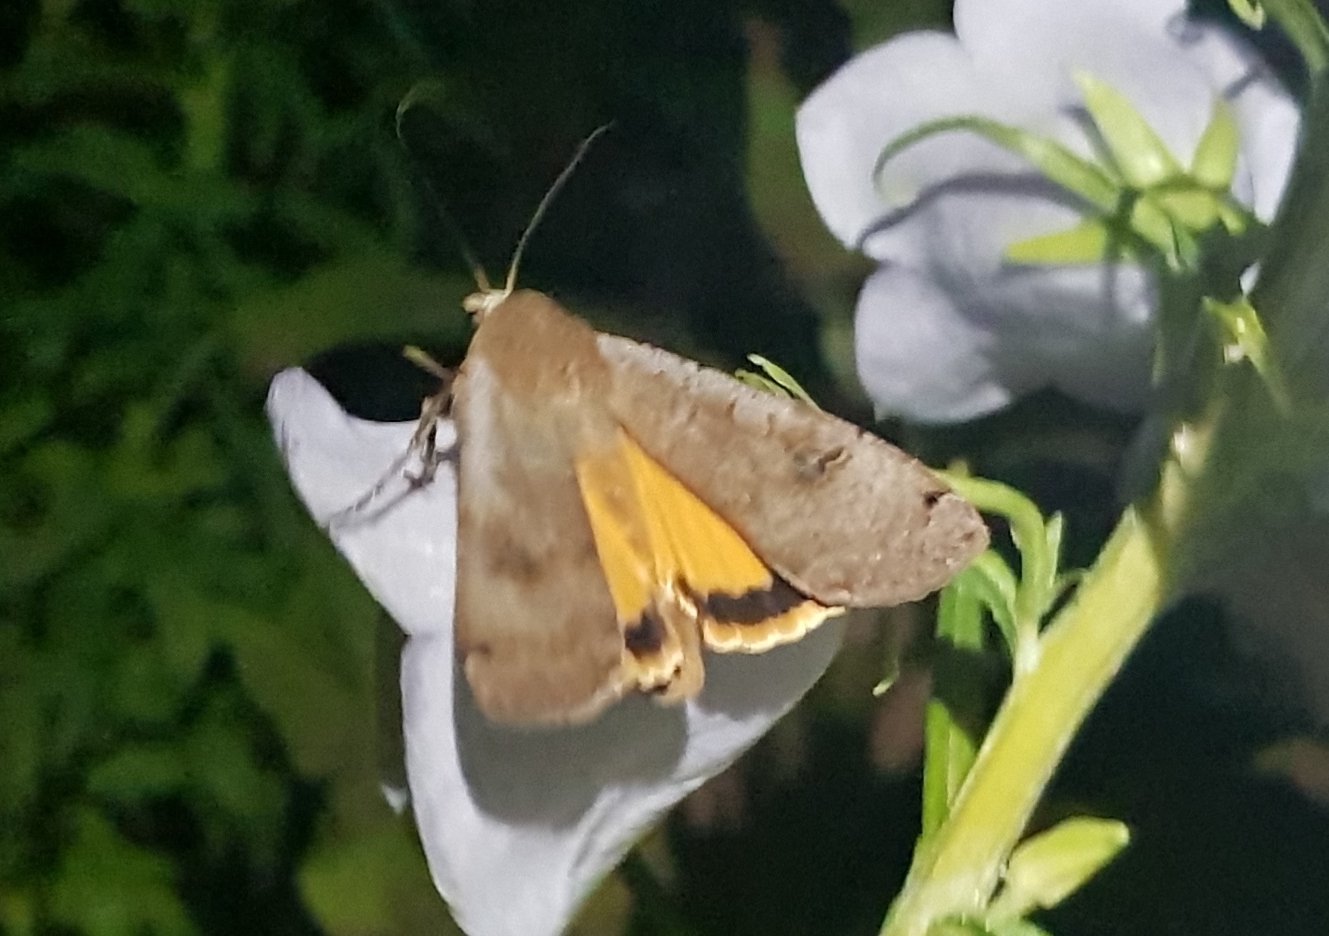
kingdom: Animalia
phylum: Arthropoda
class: Insecta
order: Lepidoptera
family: Noctuidae
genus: Noctua
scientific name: Noctua pronuba
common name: Large yellow underwing
